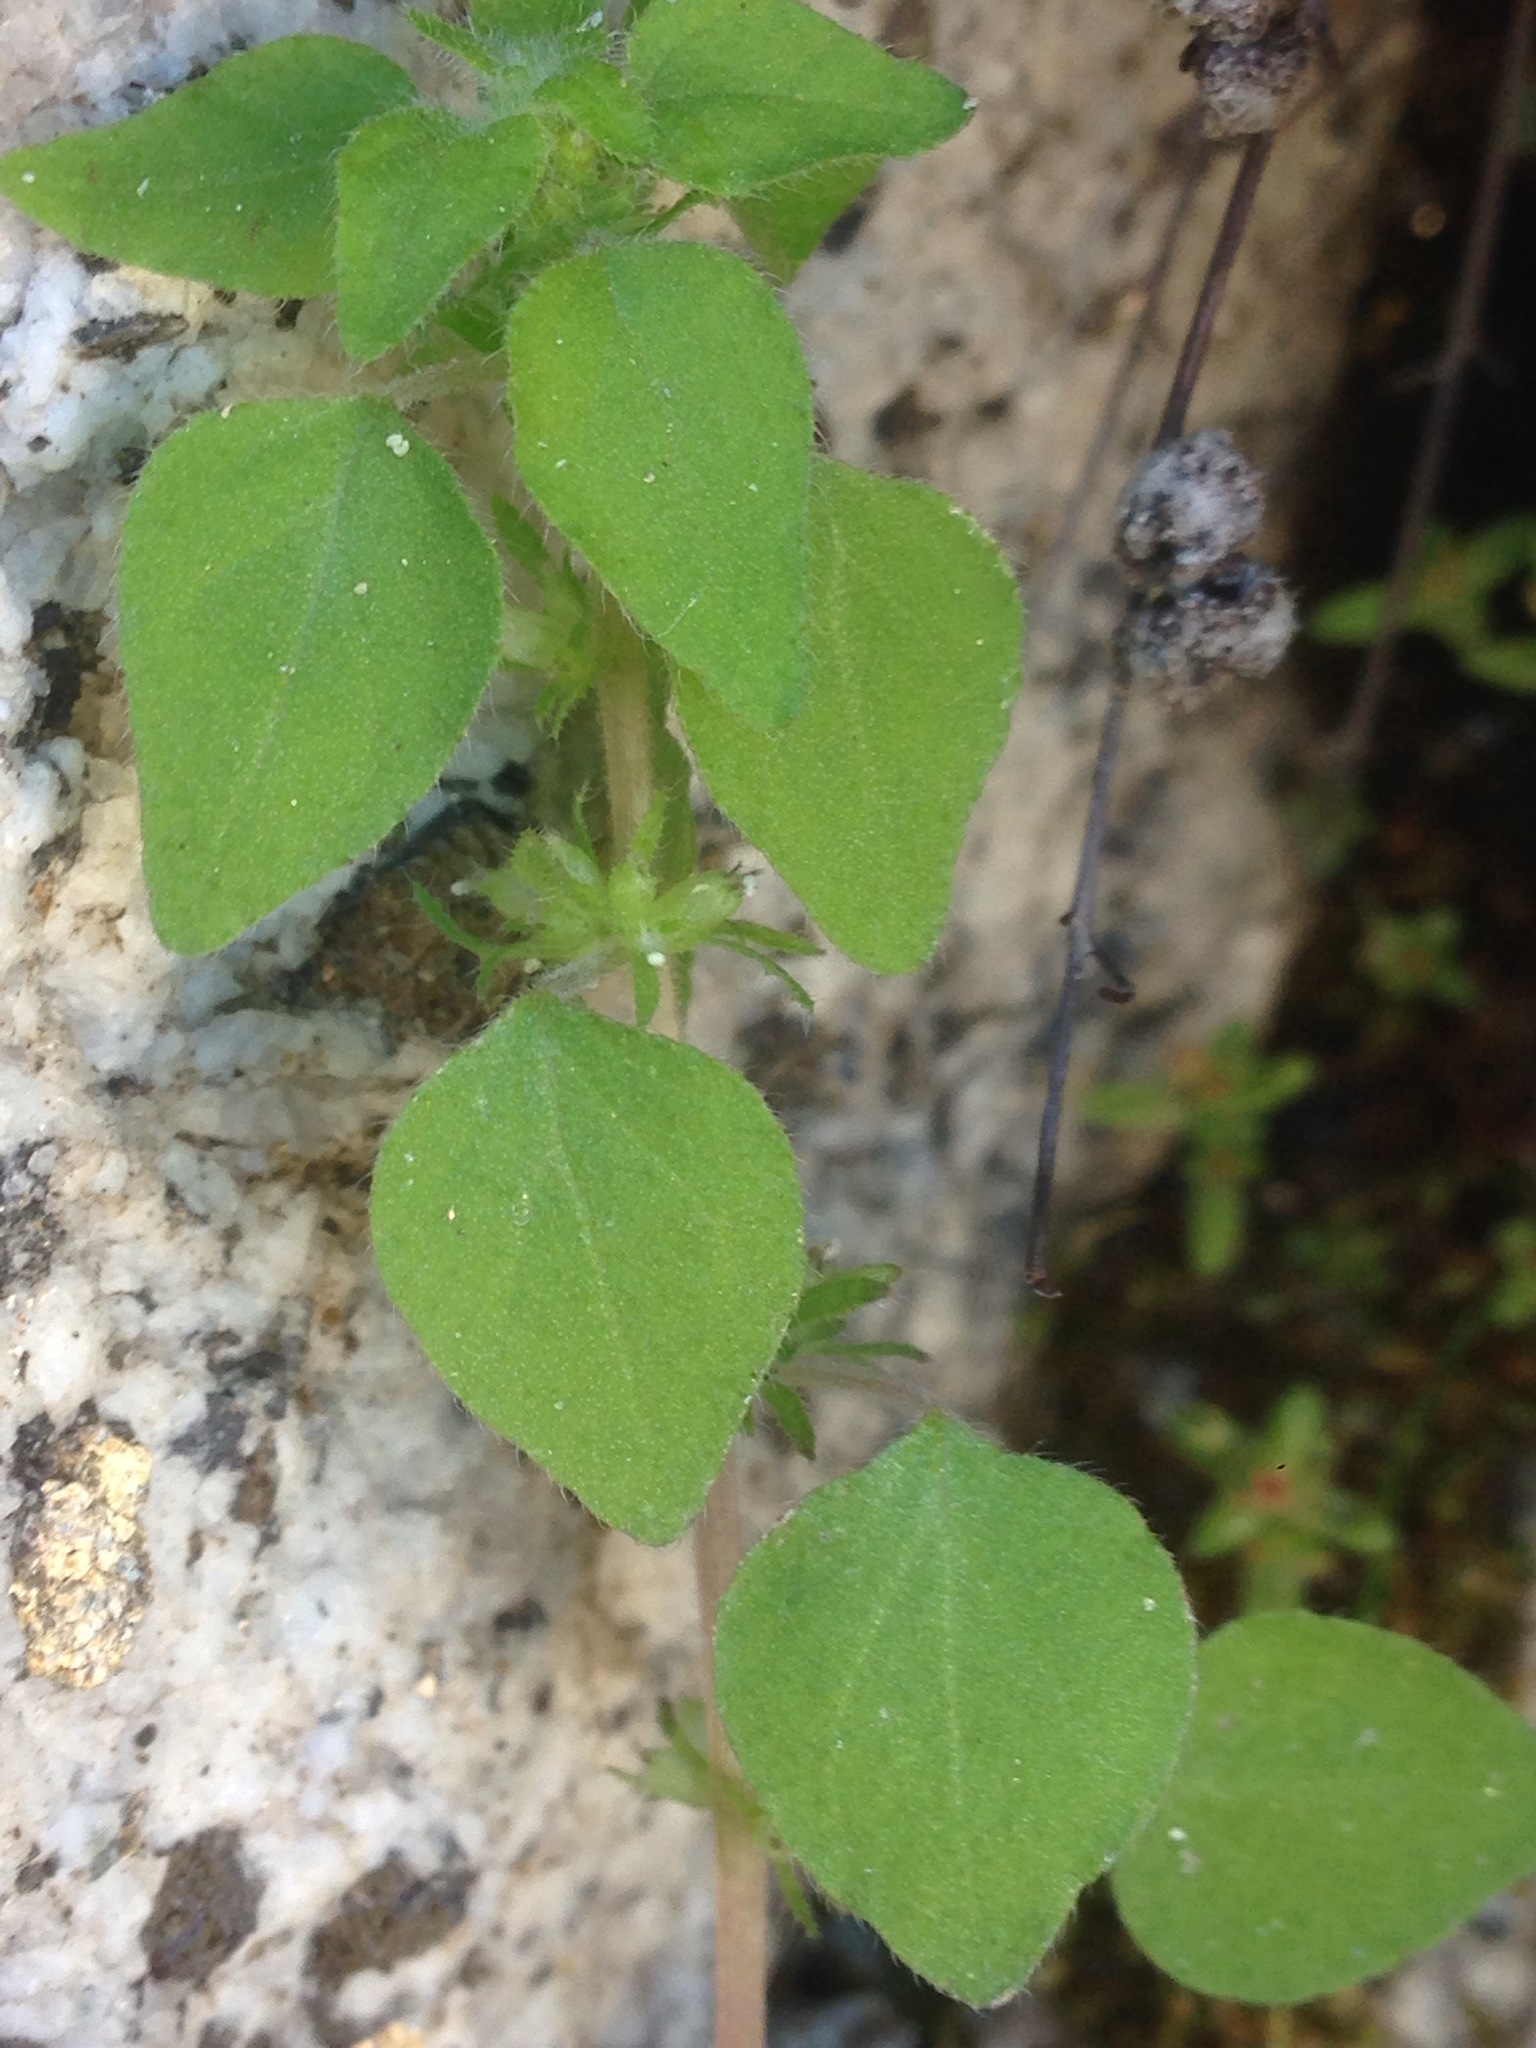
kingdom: Plantae
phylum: Tracheophyta
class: Magnoliopsida
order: Rosales
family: Urticaceae
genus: Parietaria
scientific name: Parietaria hespera
